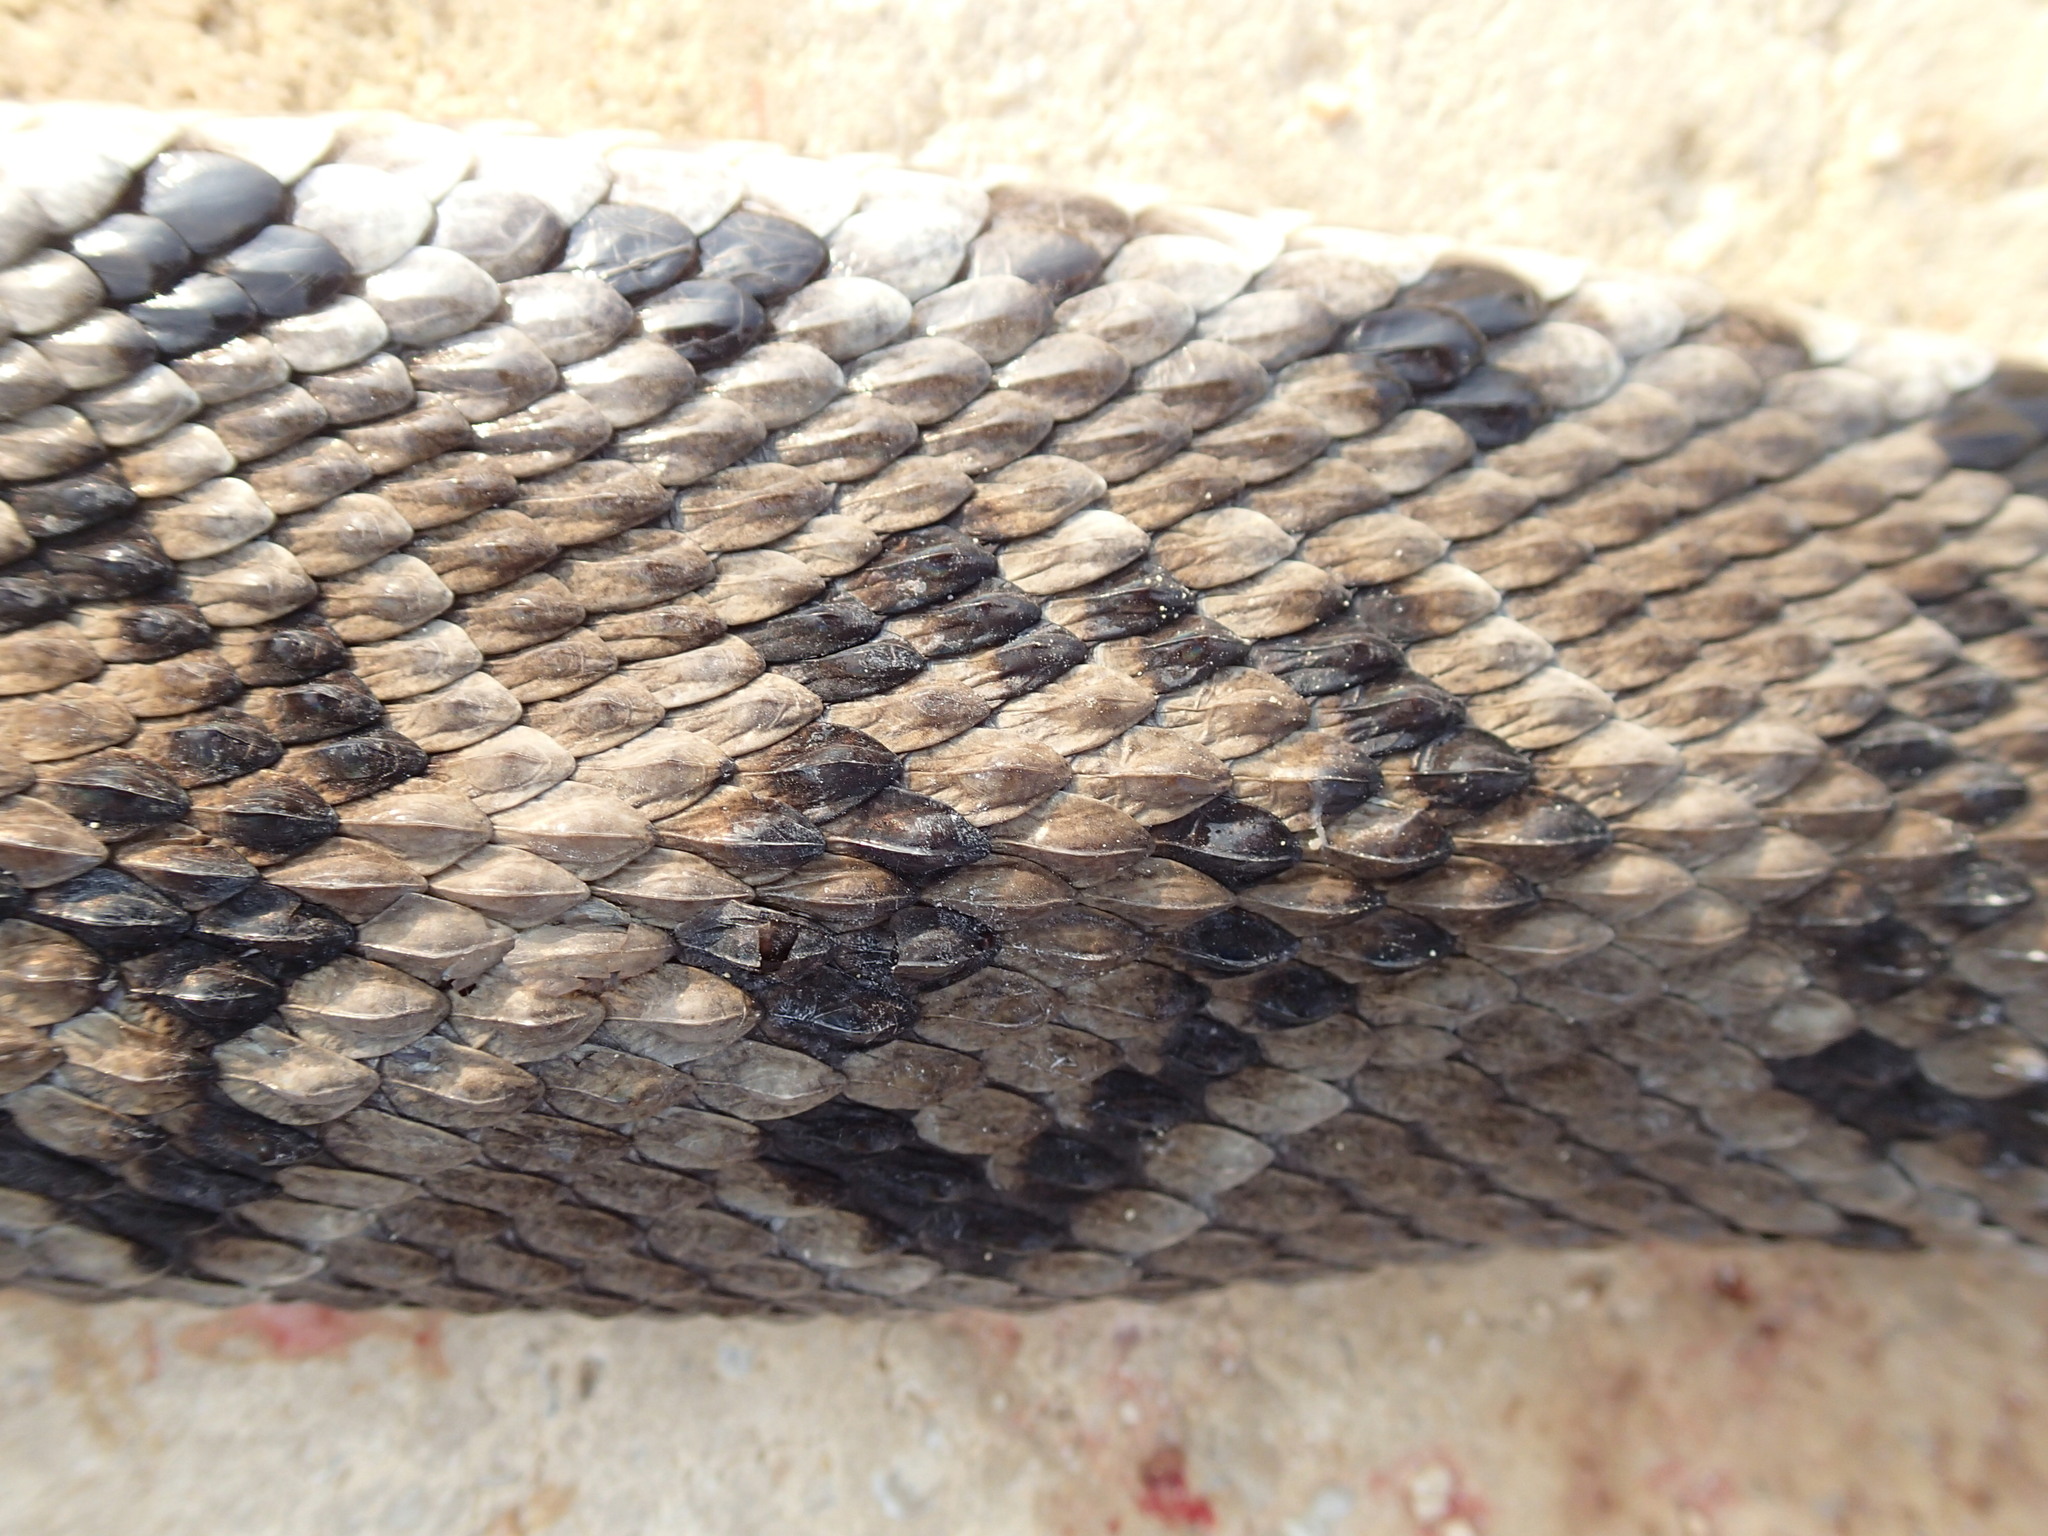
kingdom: Animalia
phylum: Chordata
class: Squamata
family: Viperidae
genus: Crotalus
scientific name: Crotalus tzabcan
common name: Yucatan neotropical rattlesnake
